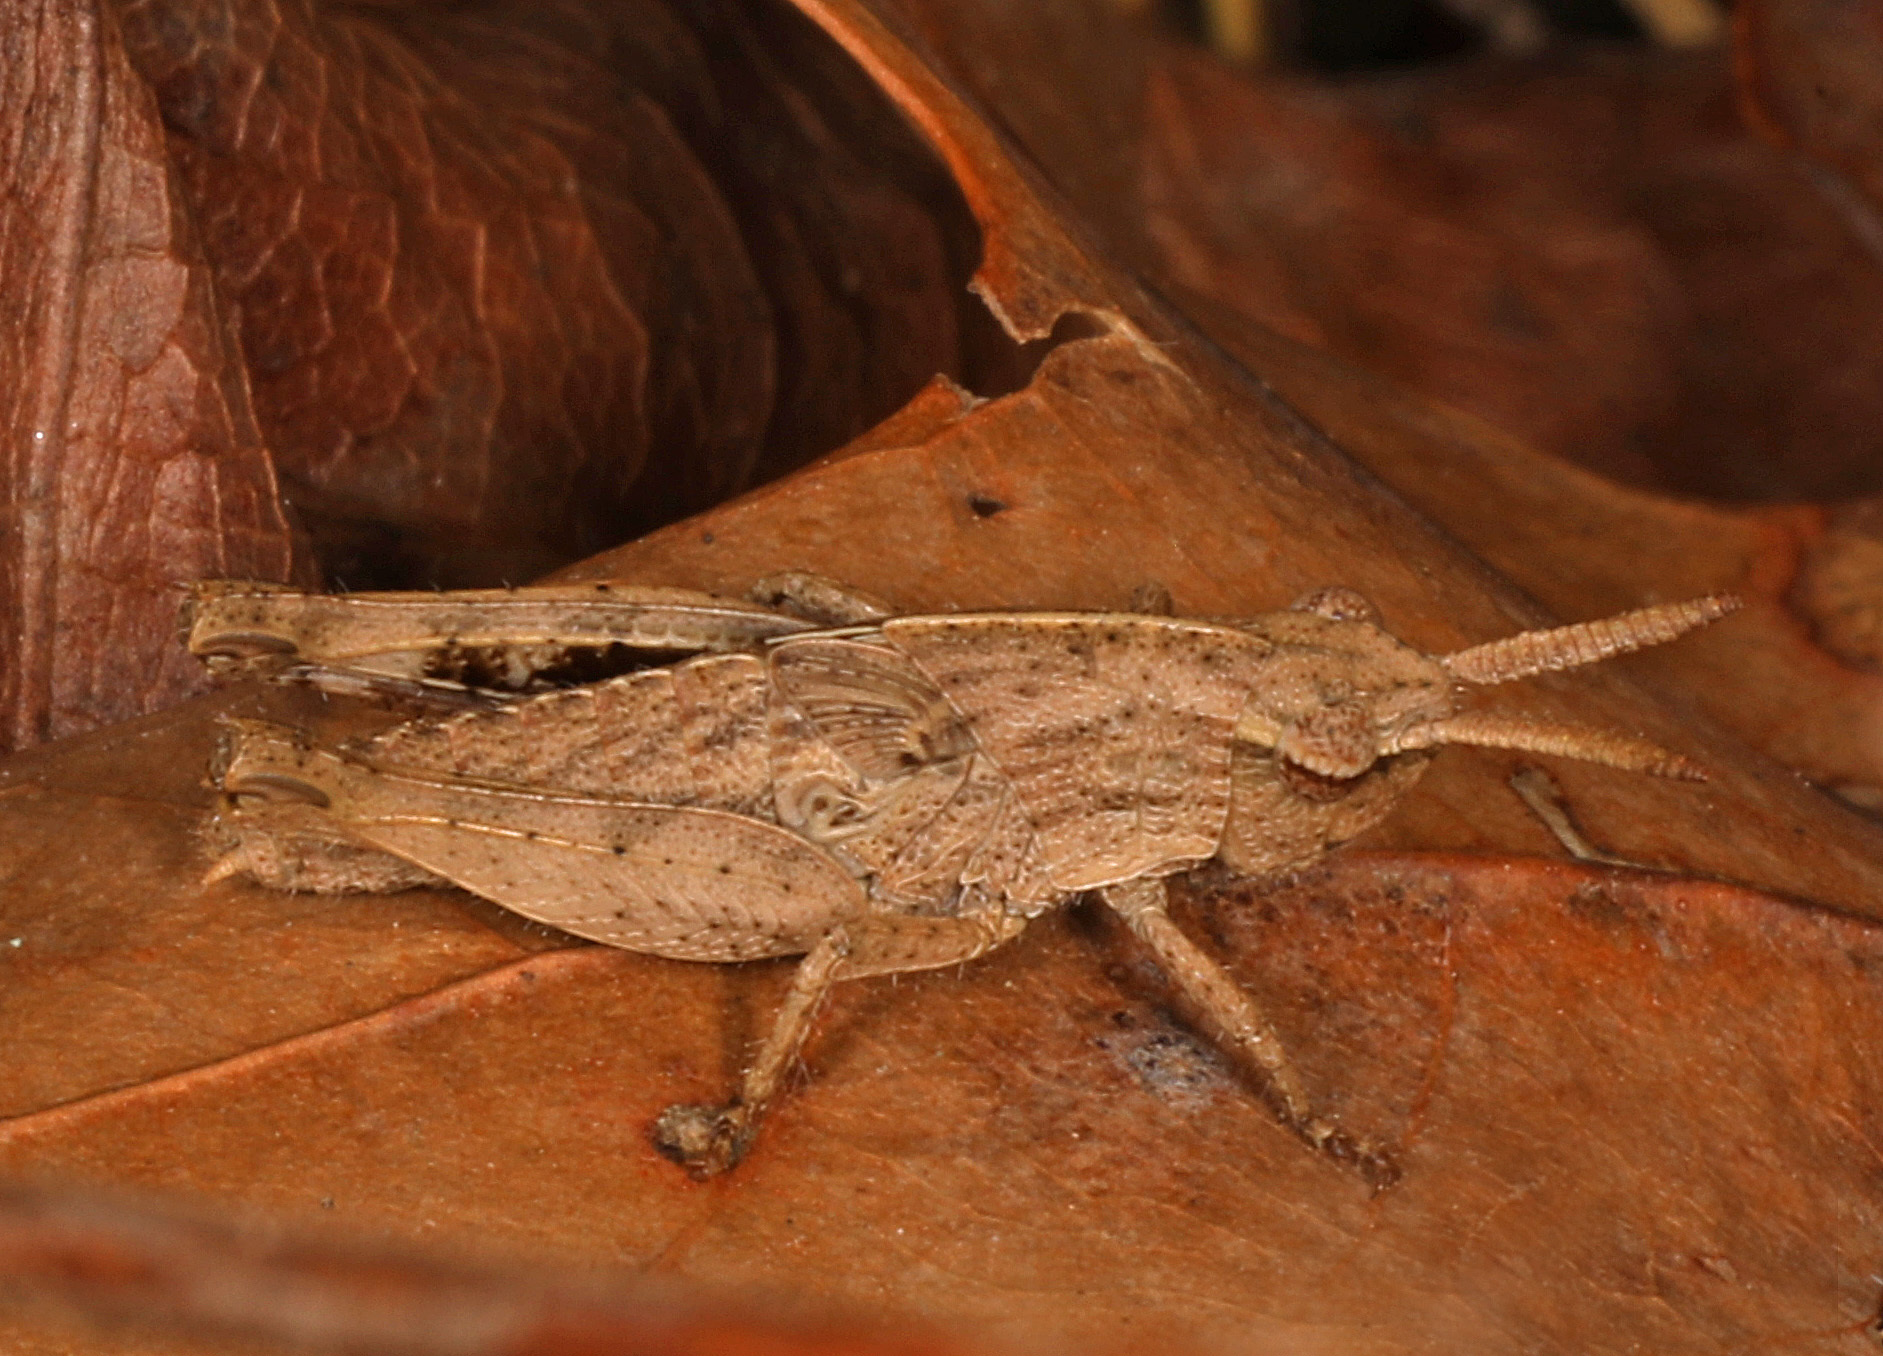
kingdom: Animalia
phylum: Arthropoda
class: Insecta
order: Orthoptera
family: Acrididae
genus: Chortophaga
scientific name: Chortophaga viridifasciata
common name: Green-striped grasshopper
